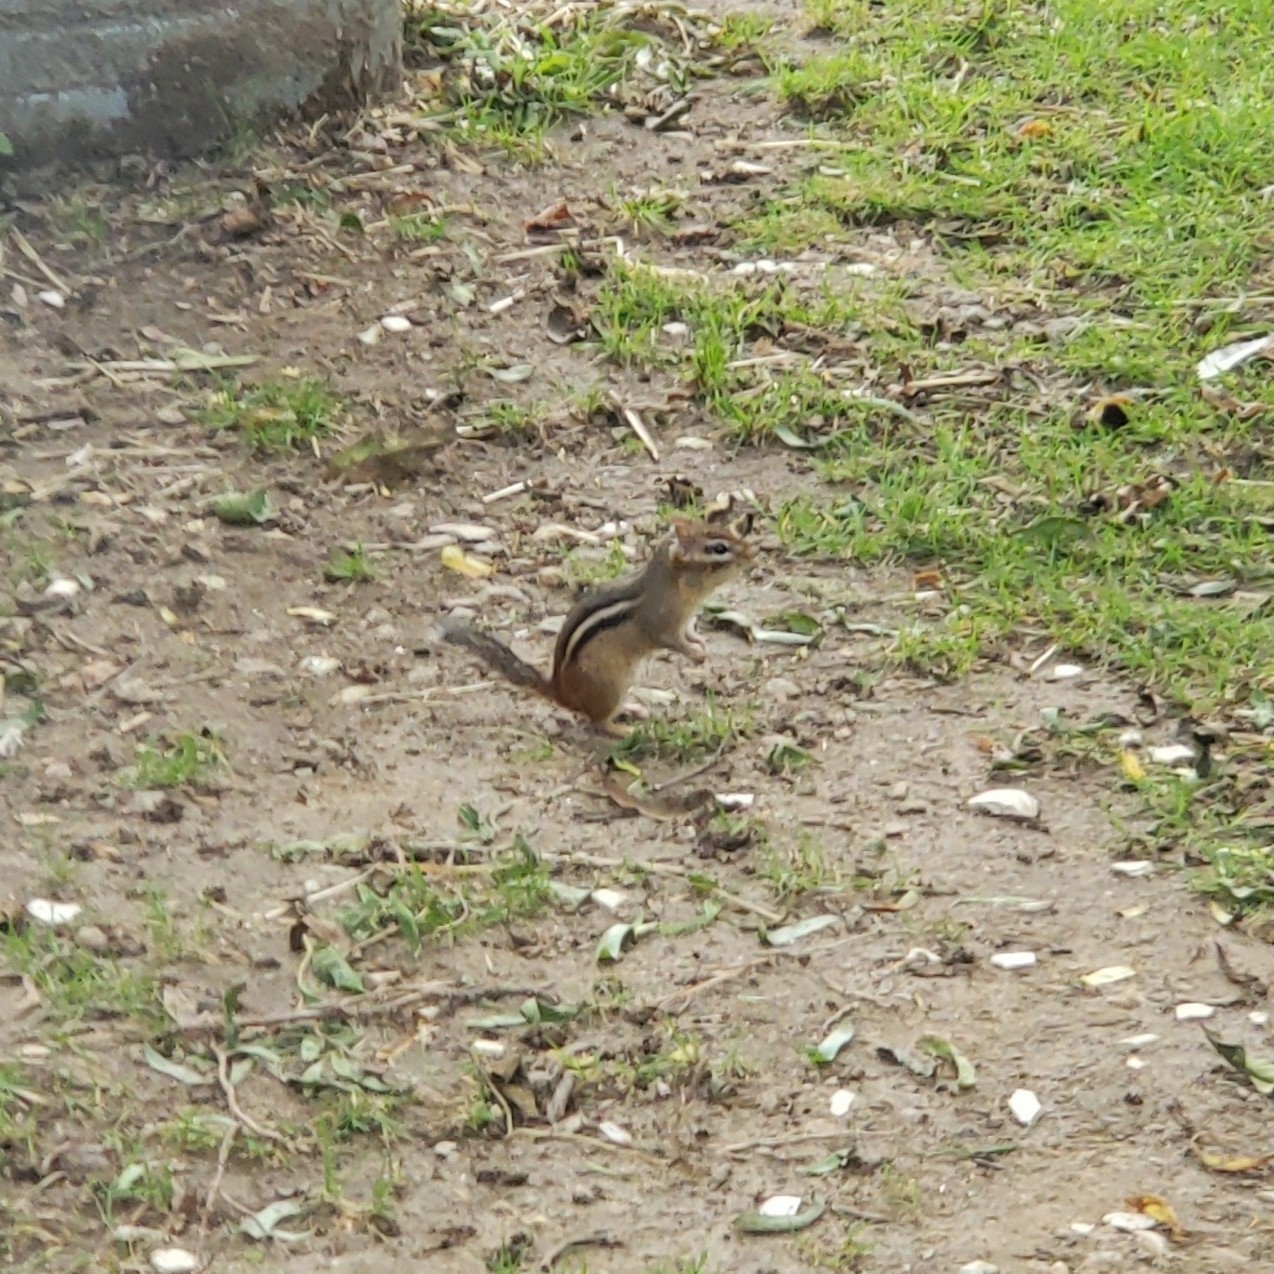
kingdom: Animalia
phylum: Chordata
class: Mammalia
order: Rodentia
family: Sciuridae
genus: Tamias
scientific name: Tamias striatus
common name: Eastern chipmunk
